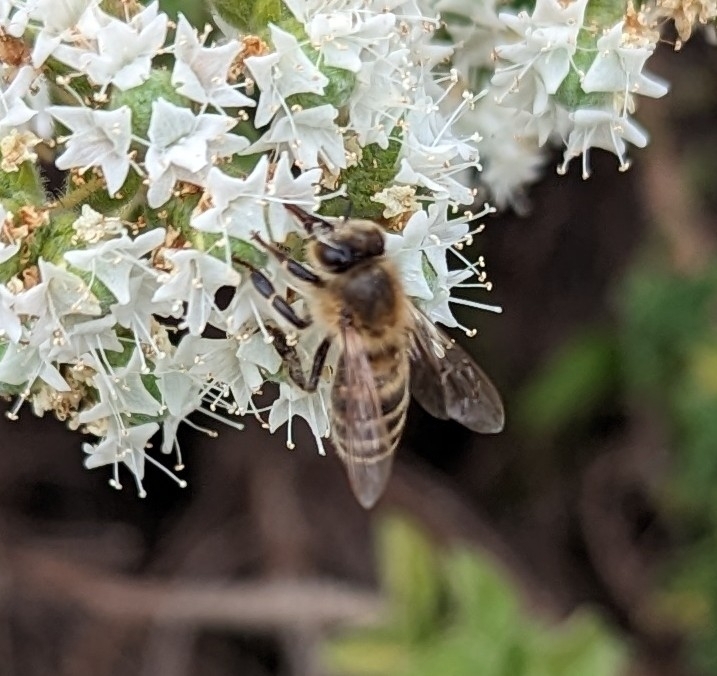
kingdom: Animalia
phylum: Arthropoda
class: Insecta
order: Hymenoptera
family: Apidae
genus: Apis
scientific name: Apis mellifera
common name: Honey bee
